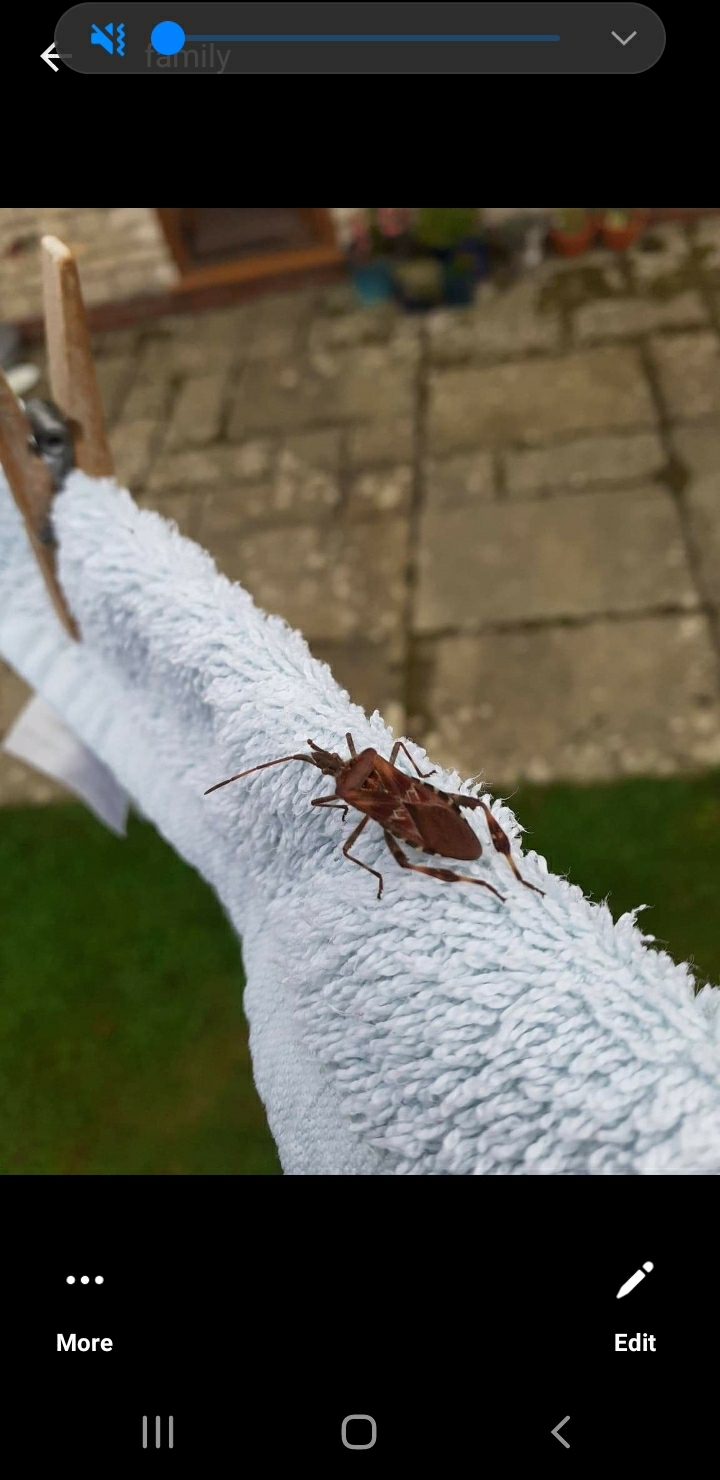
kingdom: Animalia
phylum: Arthropoda
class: Insecta
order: Hemiptera
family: Coreidae
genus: Leptoglossus
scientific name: Leptoglossus occidentalis
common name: Western conifer-seed bug
